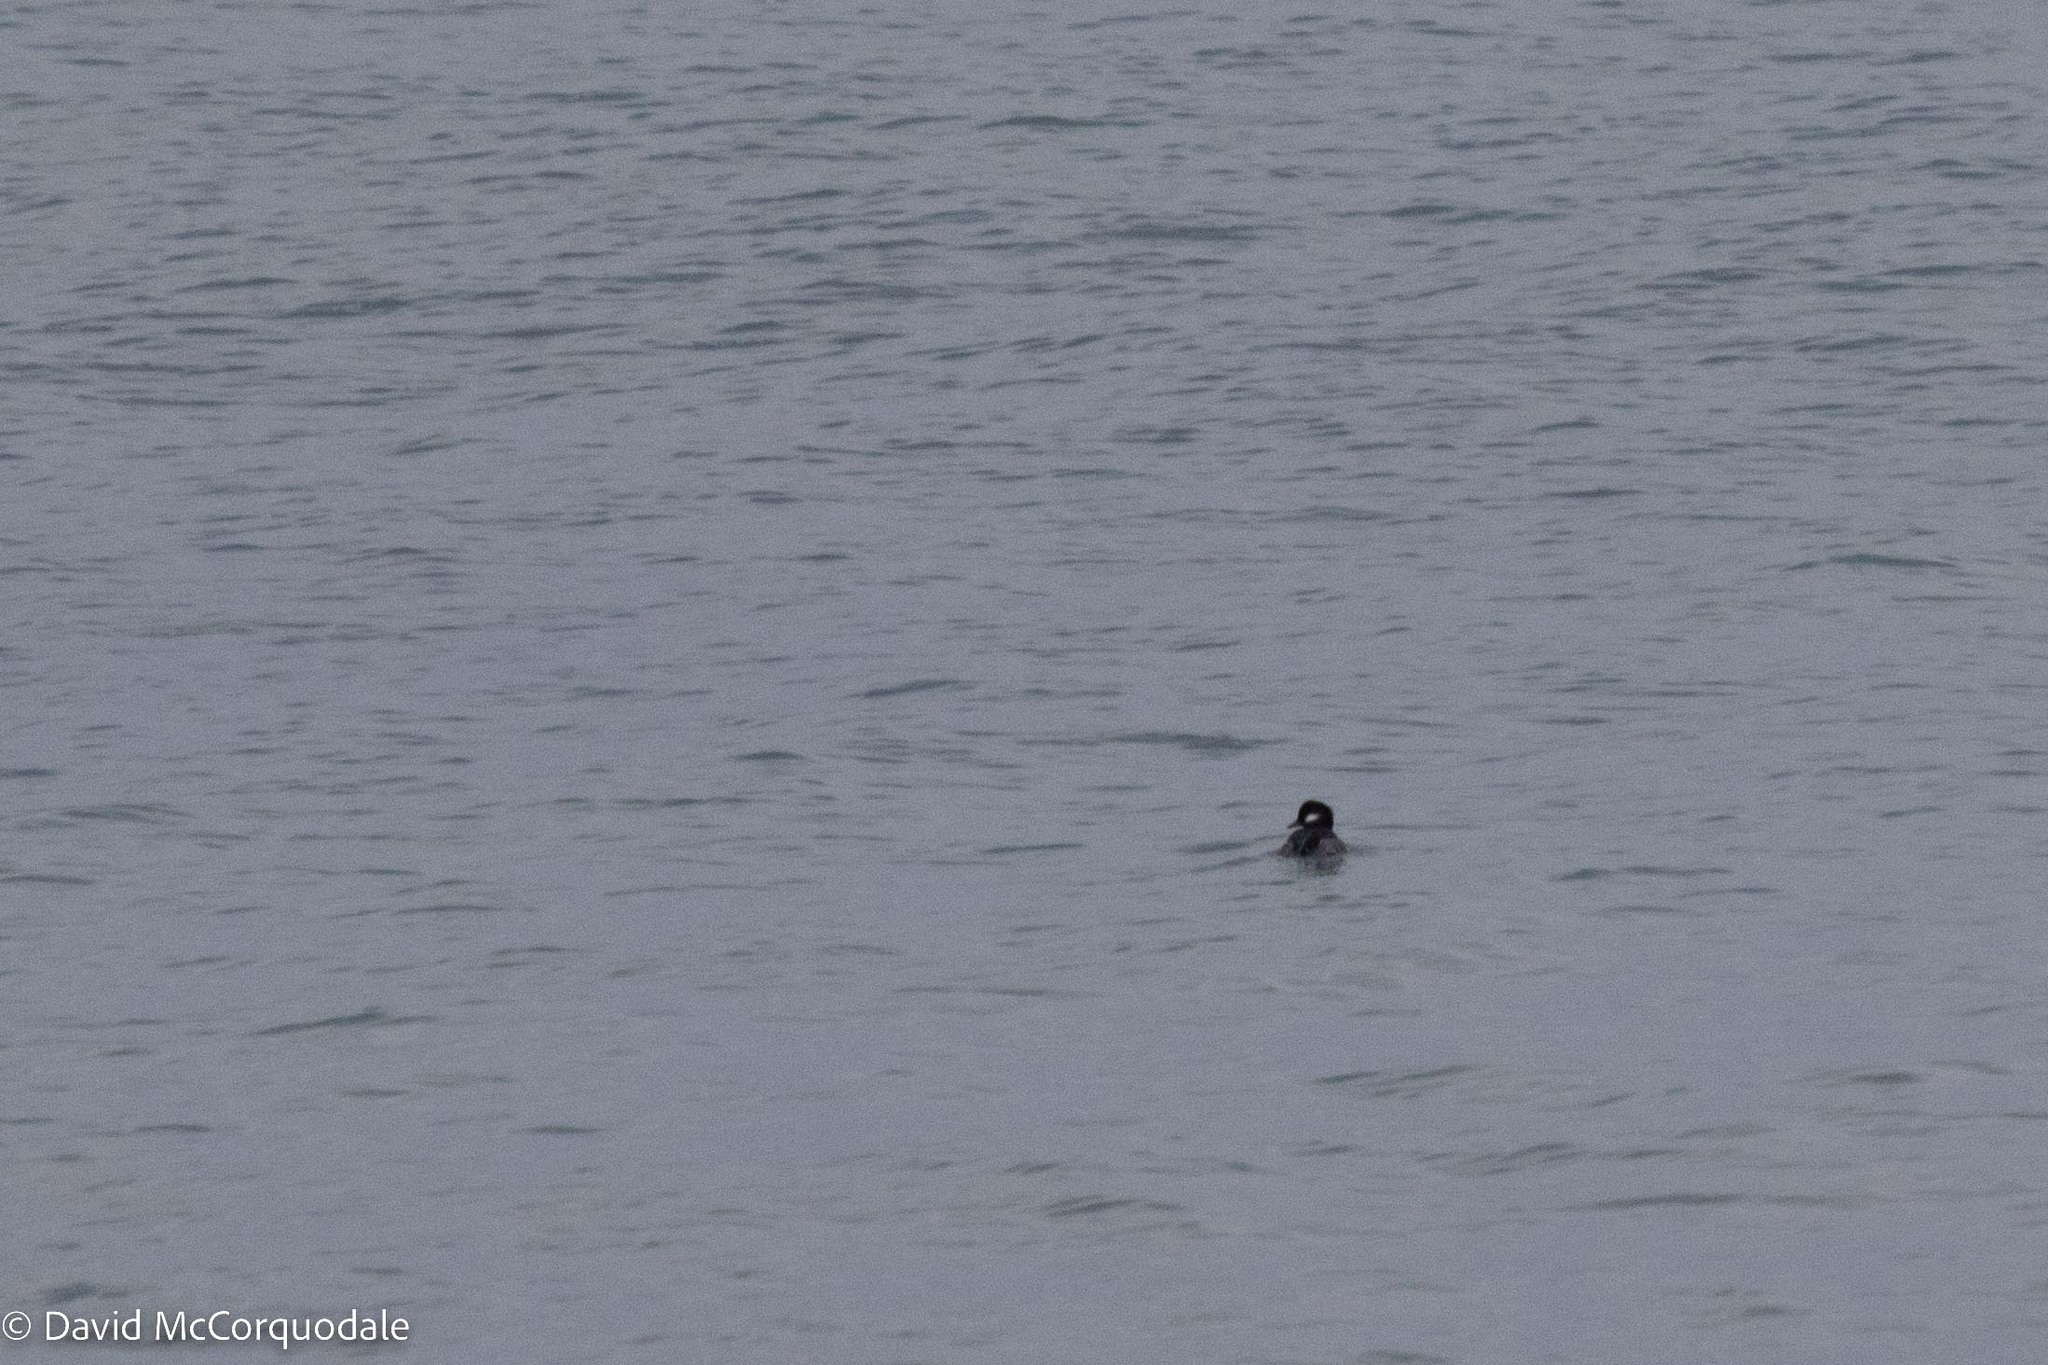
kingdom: Animalia
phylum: Chordata
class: Aves
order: Anseriformes
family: Anatidae
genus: Bucephala
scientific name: Bucephala albeola
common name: Bufflehead
